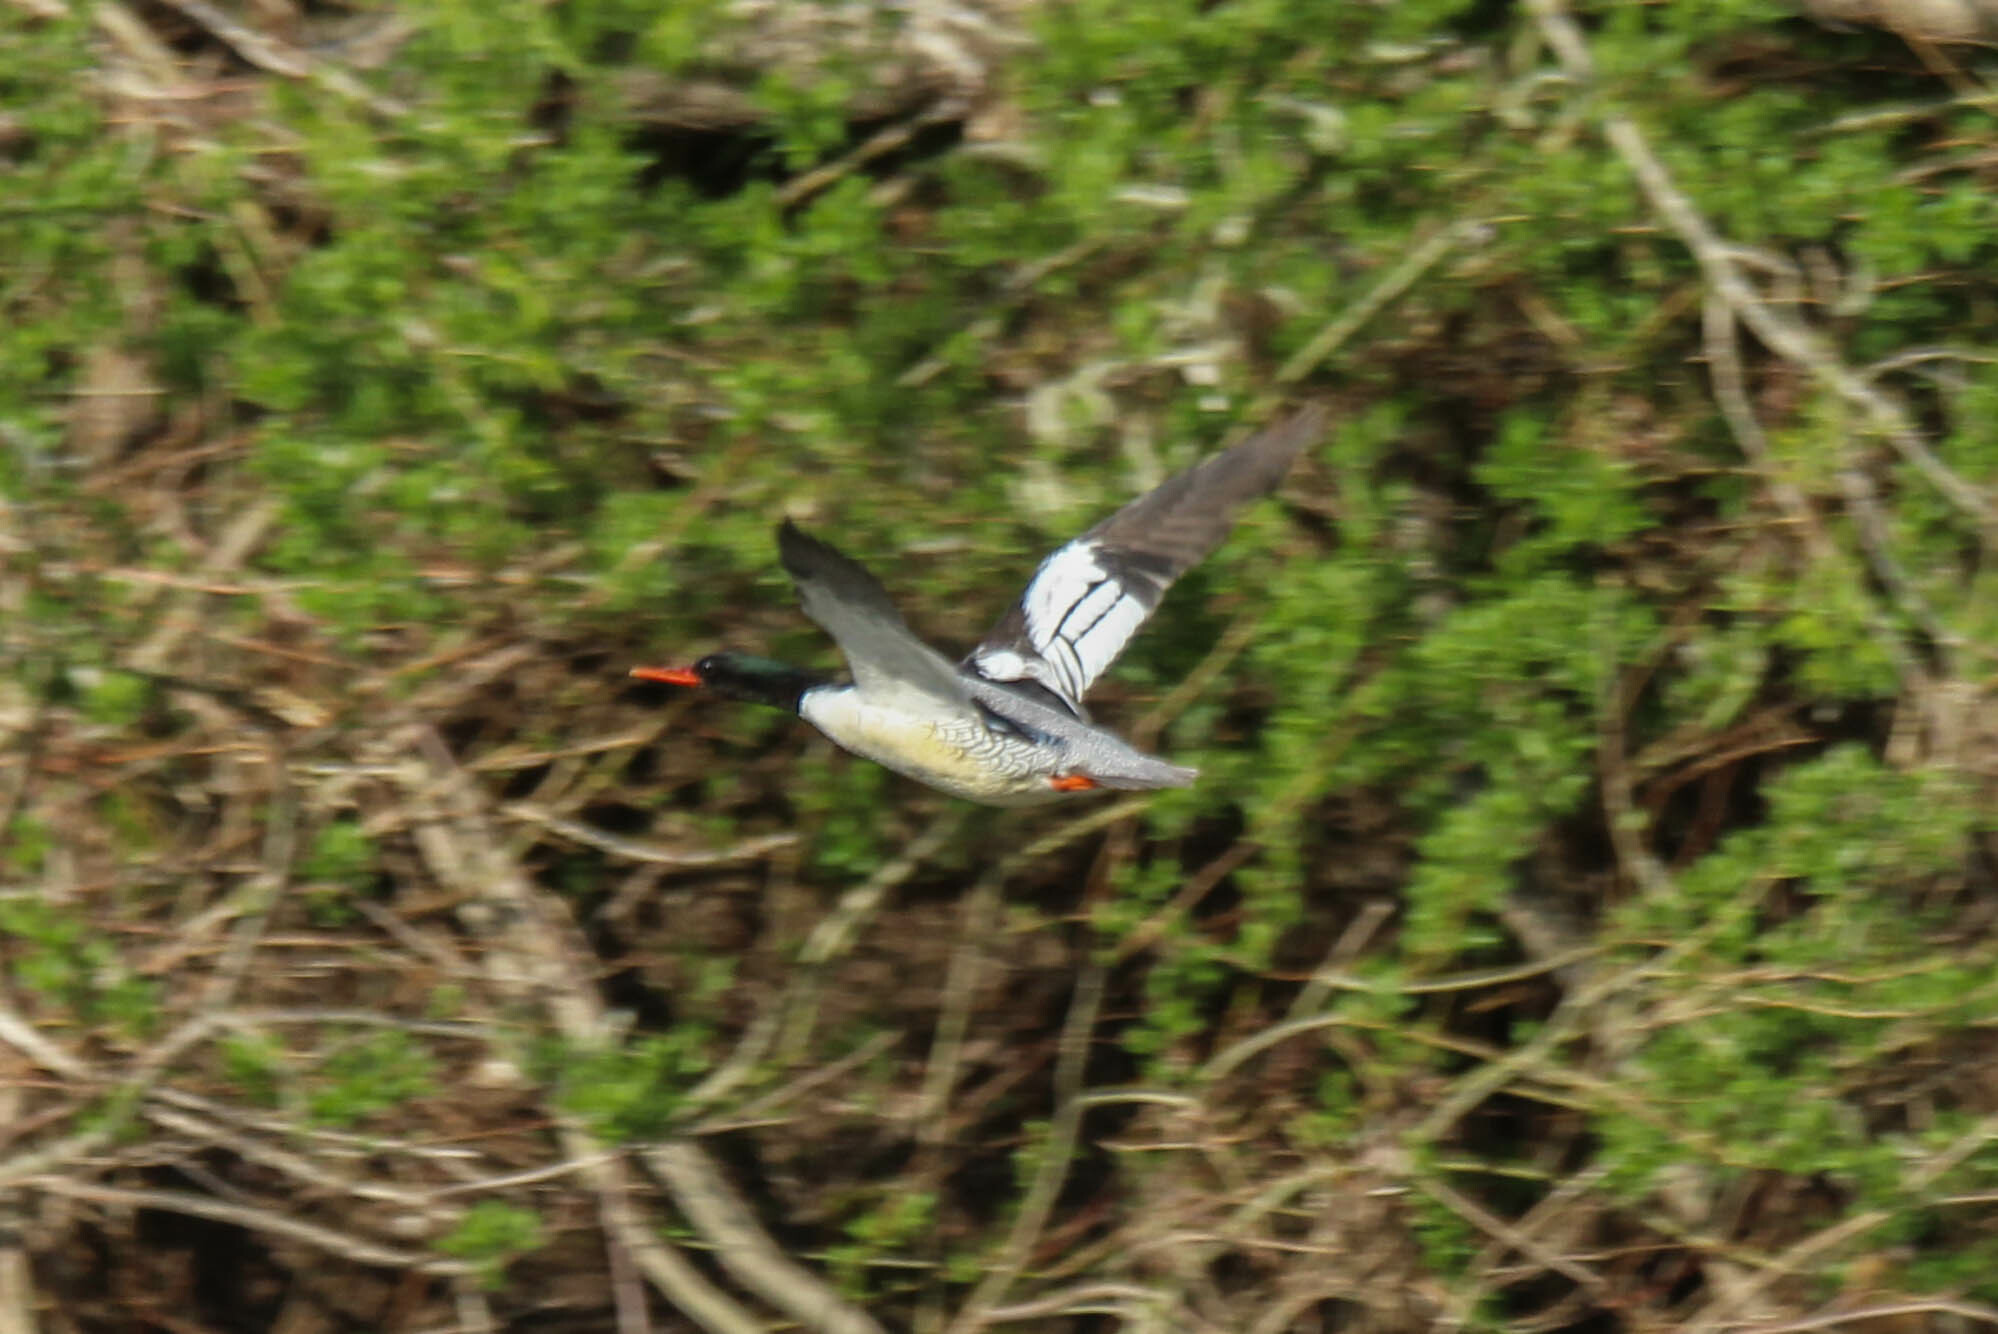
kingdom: Animalia
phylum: Chordata
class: Aves
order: Anseriformes
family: Anatidae
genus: Mergus
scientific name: Mergus squamatus
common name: Scaly-sided merganser
